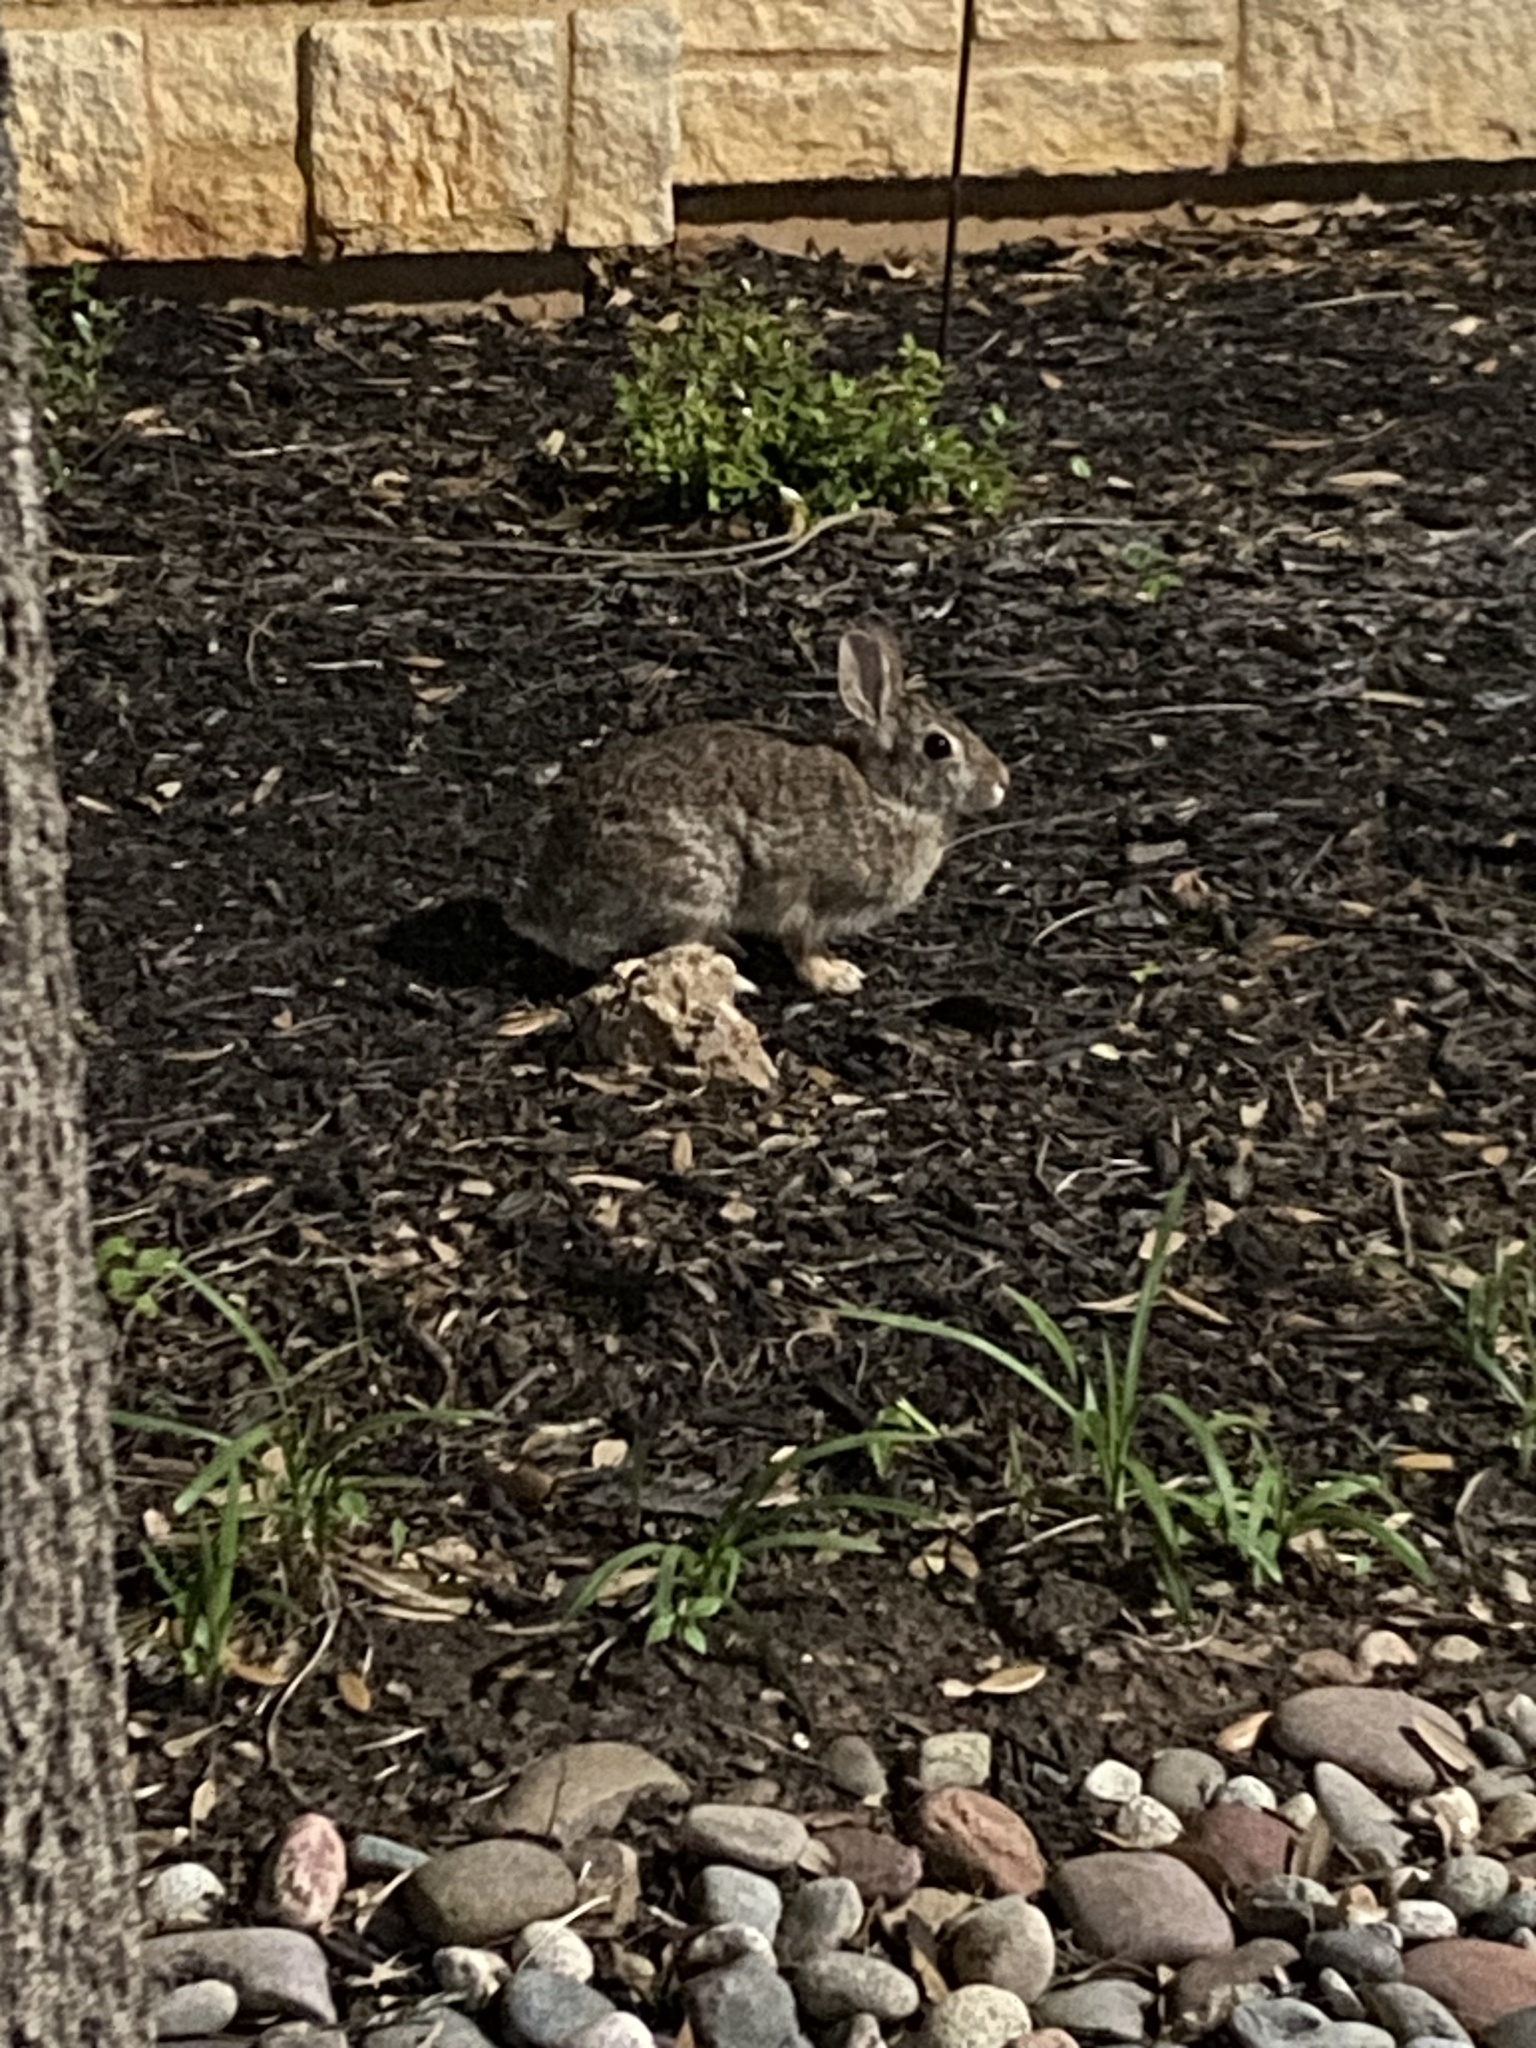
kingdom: Animalia
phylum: Chordata
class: Mammalia
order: Lagomorpha
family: Leporidae
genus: Sylvilagus
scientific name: Sylvilagus floridanus
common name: Eastern cottontail
